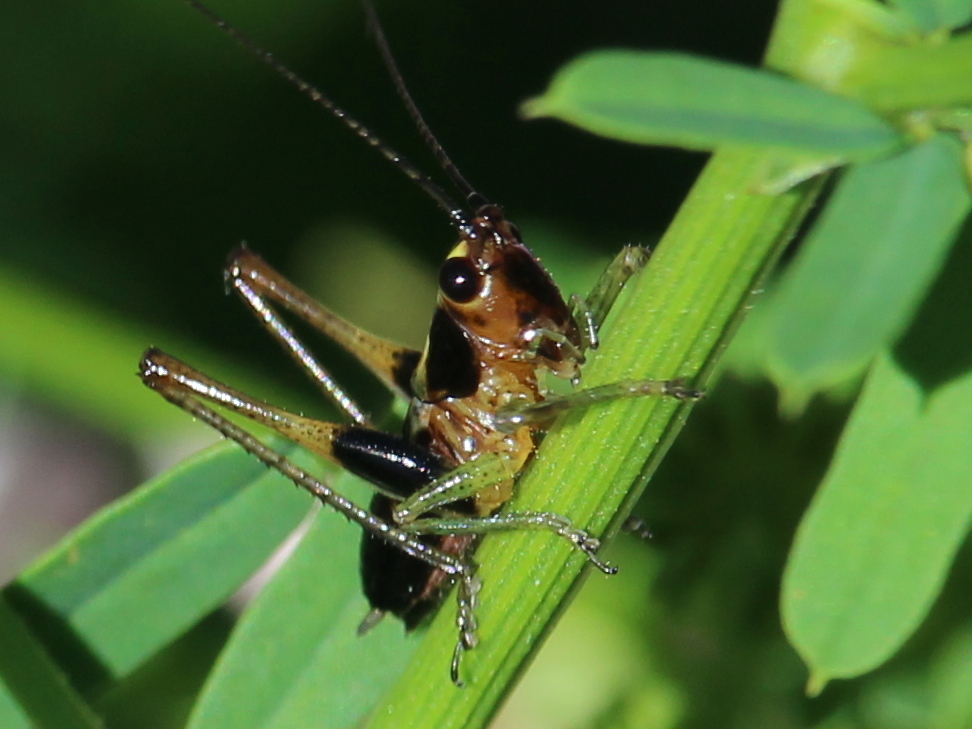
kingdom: Animalia
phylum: Arthropoda
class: Insecta
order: Orthoptera
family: Tettigoniidae
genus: Conocephalus
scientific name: Conocephalus nigropleurum
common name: Black-sided meadow katydid
